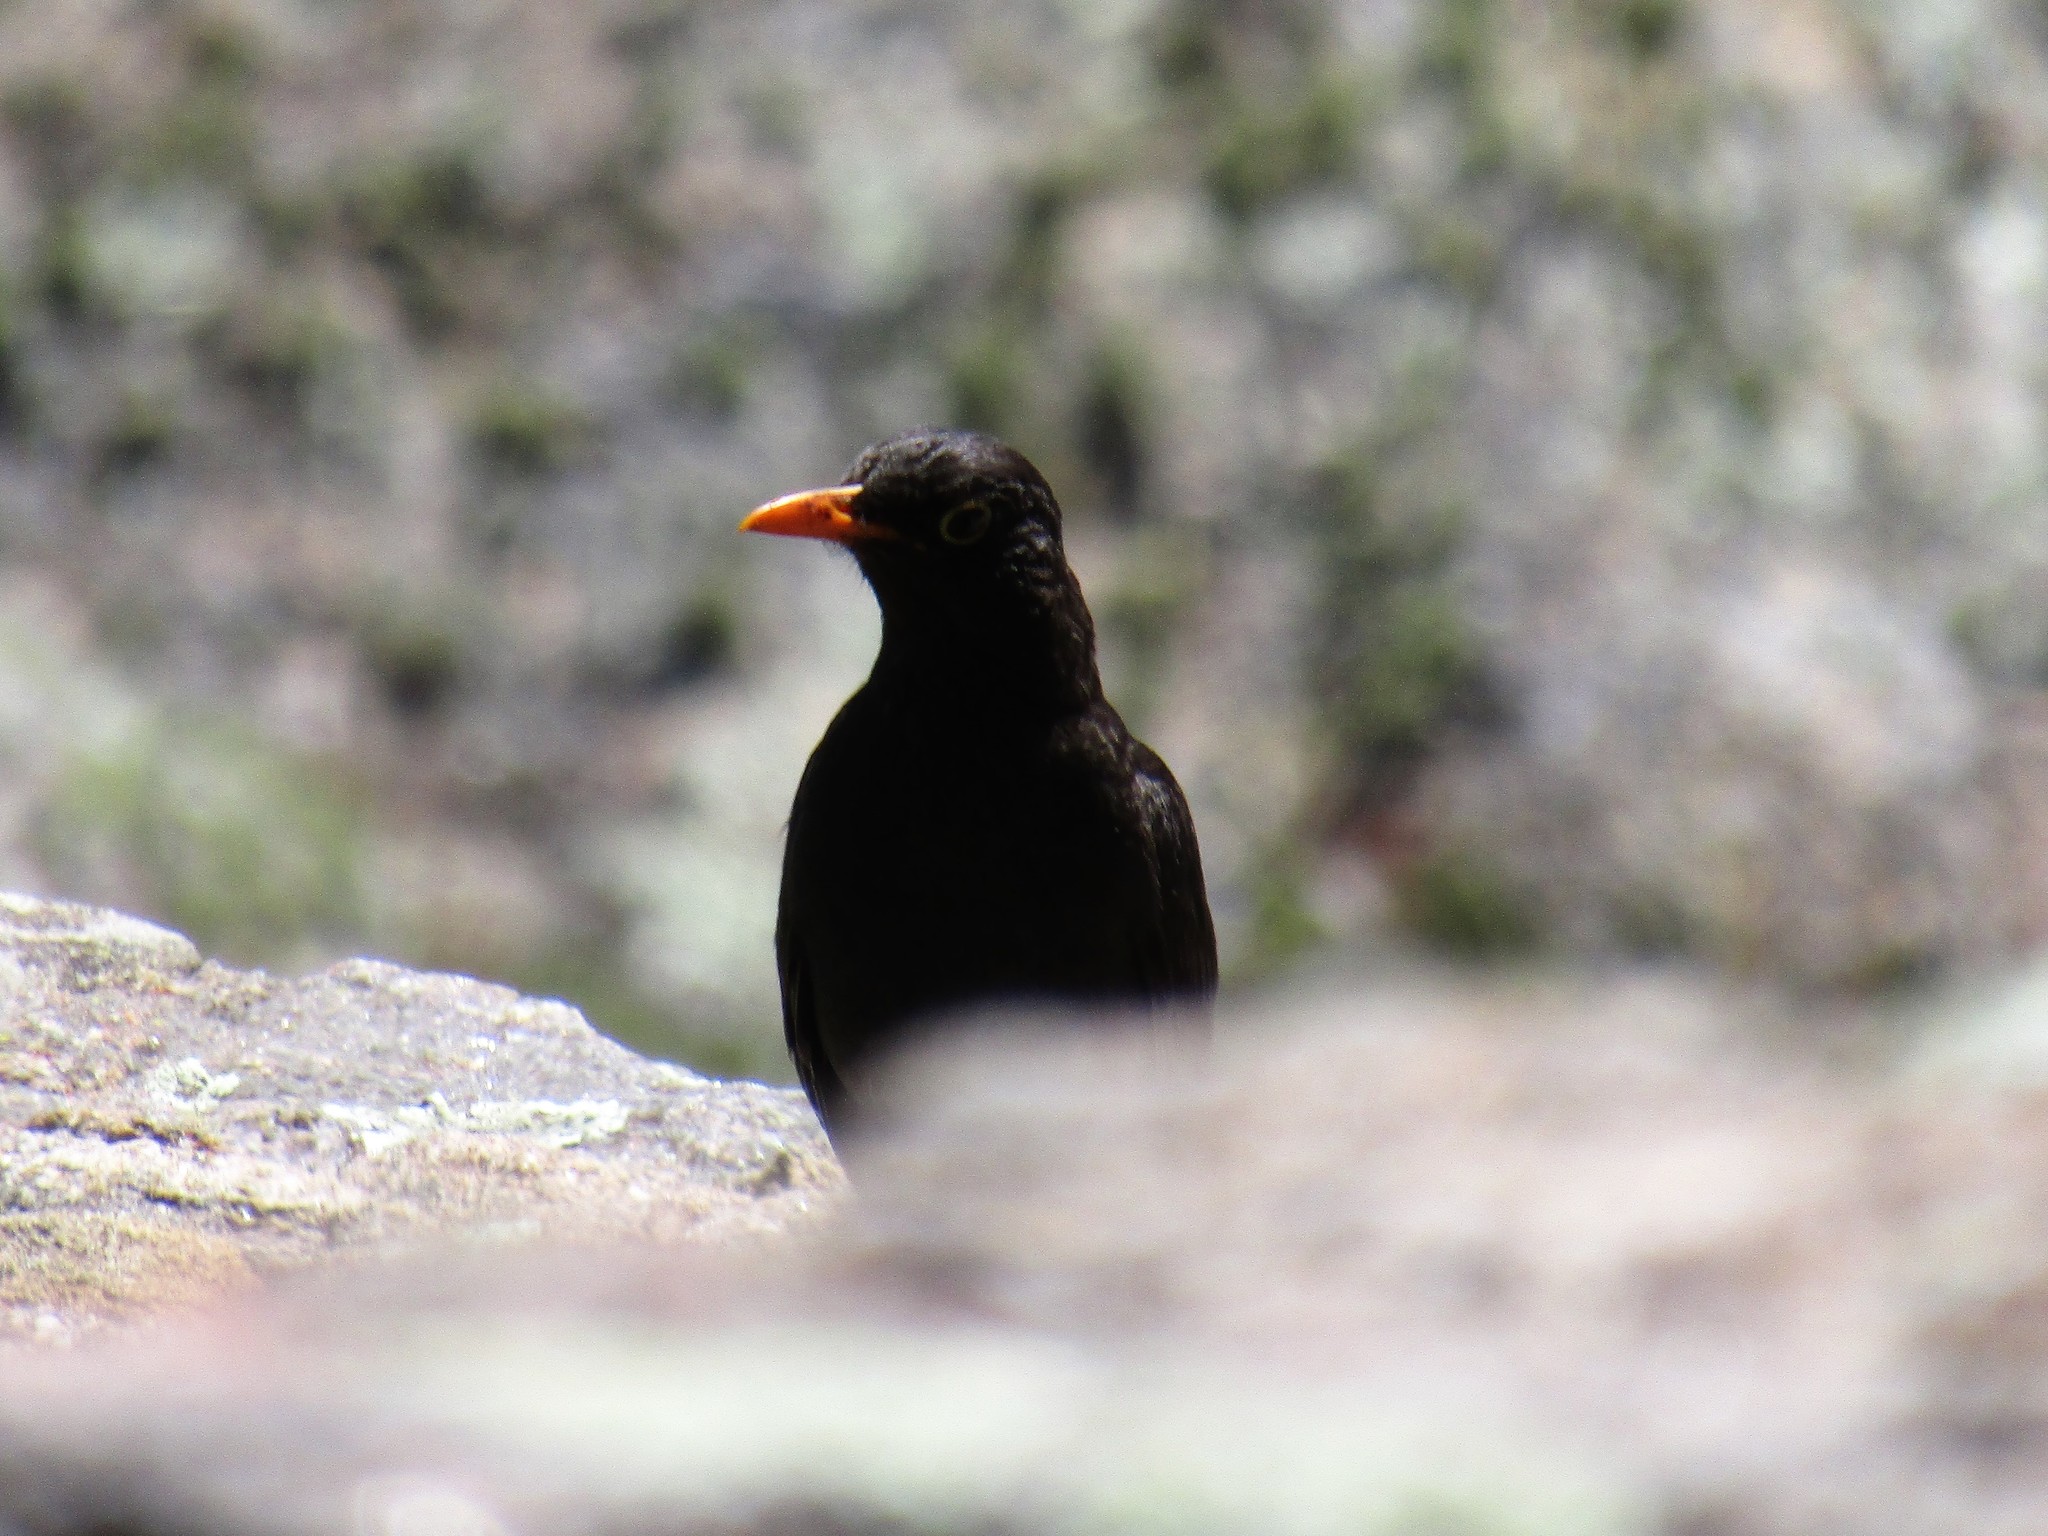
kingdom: Animalia
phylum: Chordata
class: Aves
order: Passeriformes
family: Turdidae
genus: Turdus
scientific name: Turdus chiguanco
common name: Chiguanco thrush
